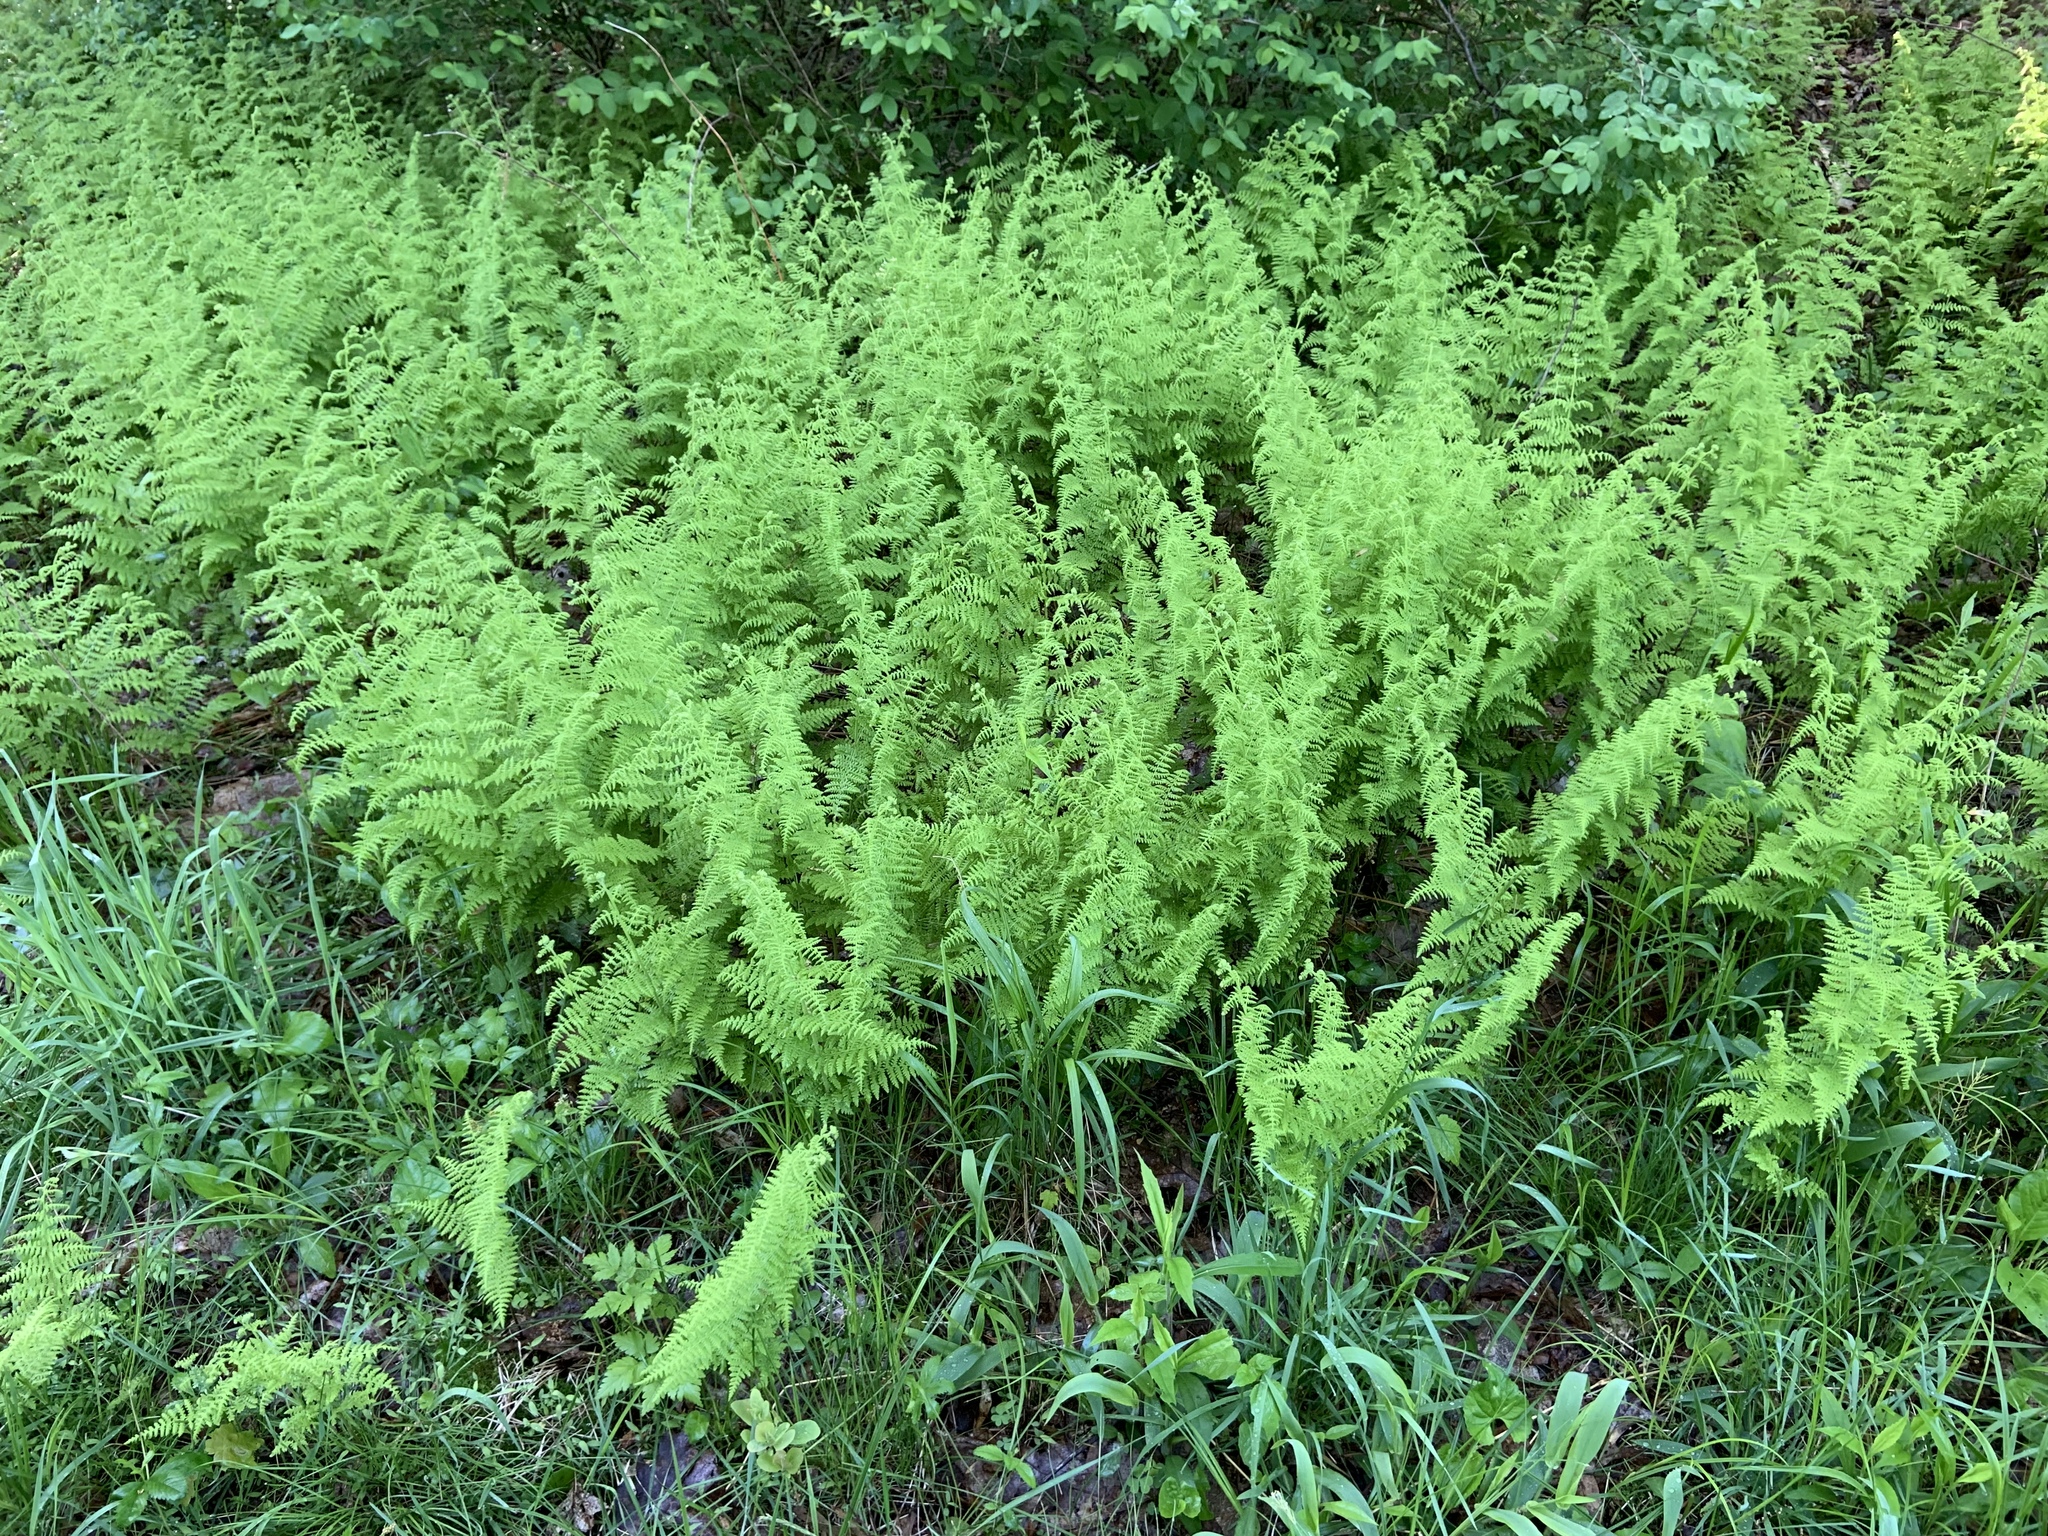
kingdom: Plantae
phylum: Tracheophyta
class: Polypodiopsida
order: Polypodiales
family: Dennstaedtiaceae
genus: Sitobolium
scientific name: Sitobolium punctilobum
